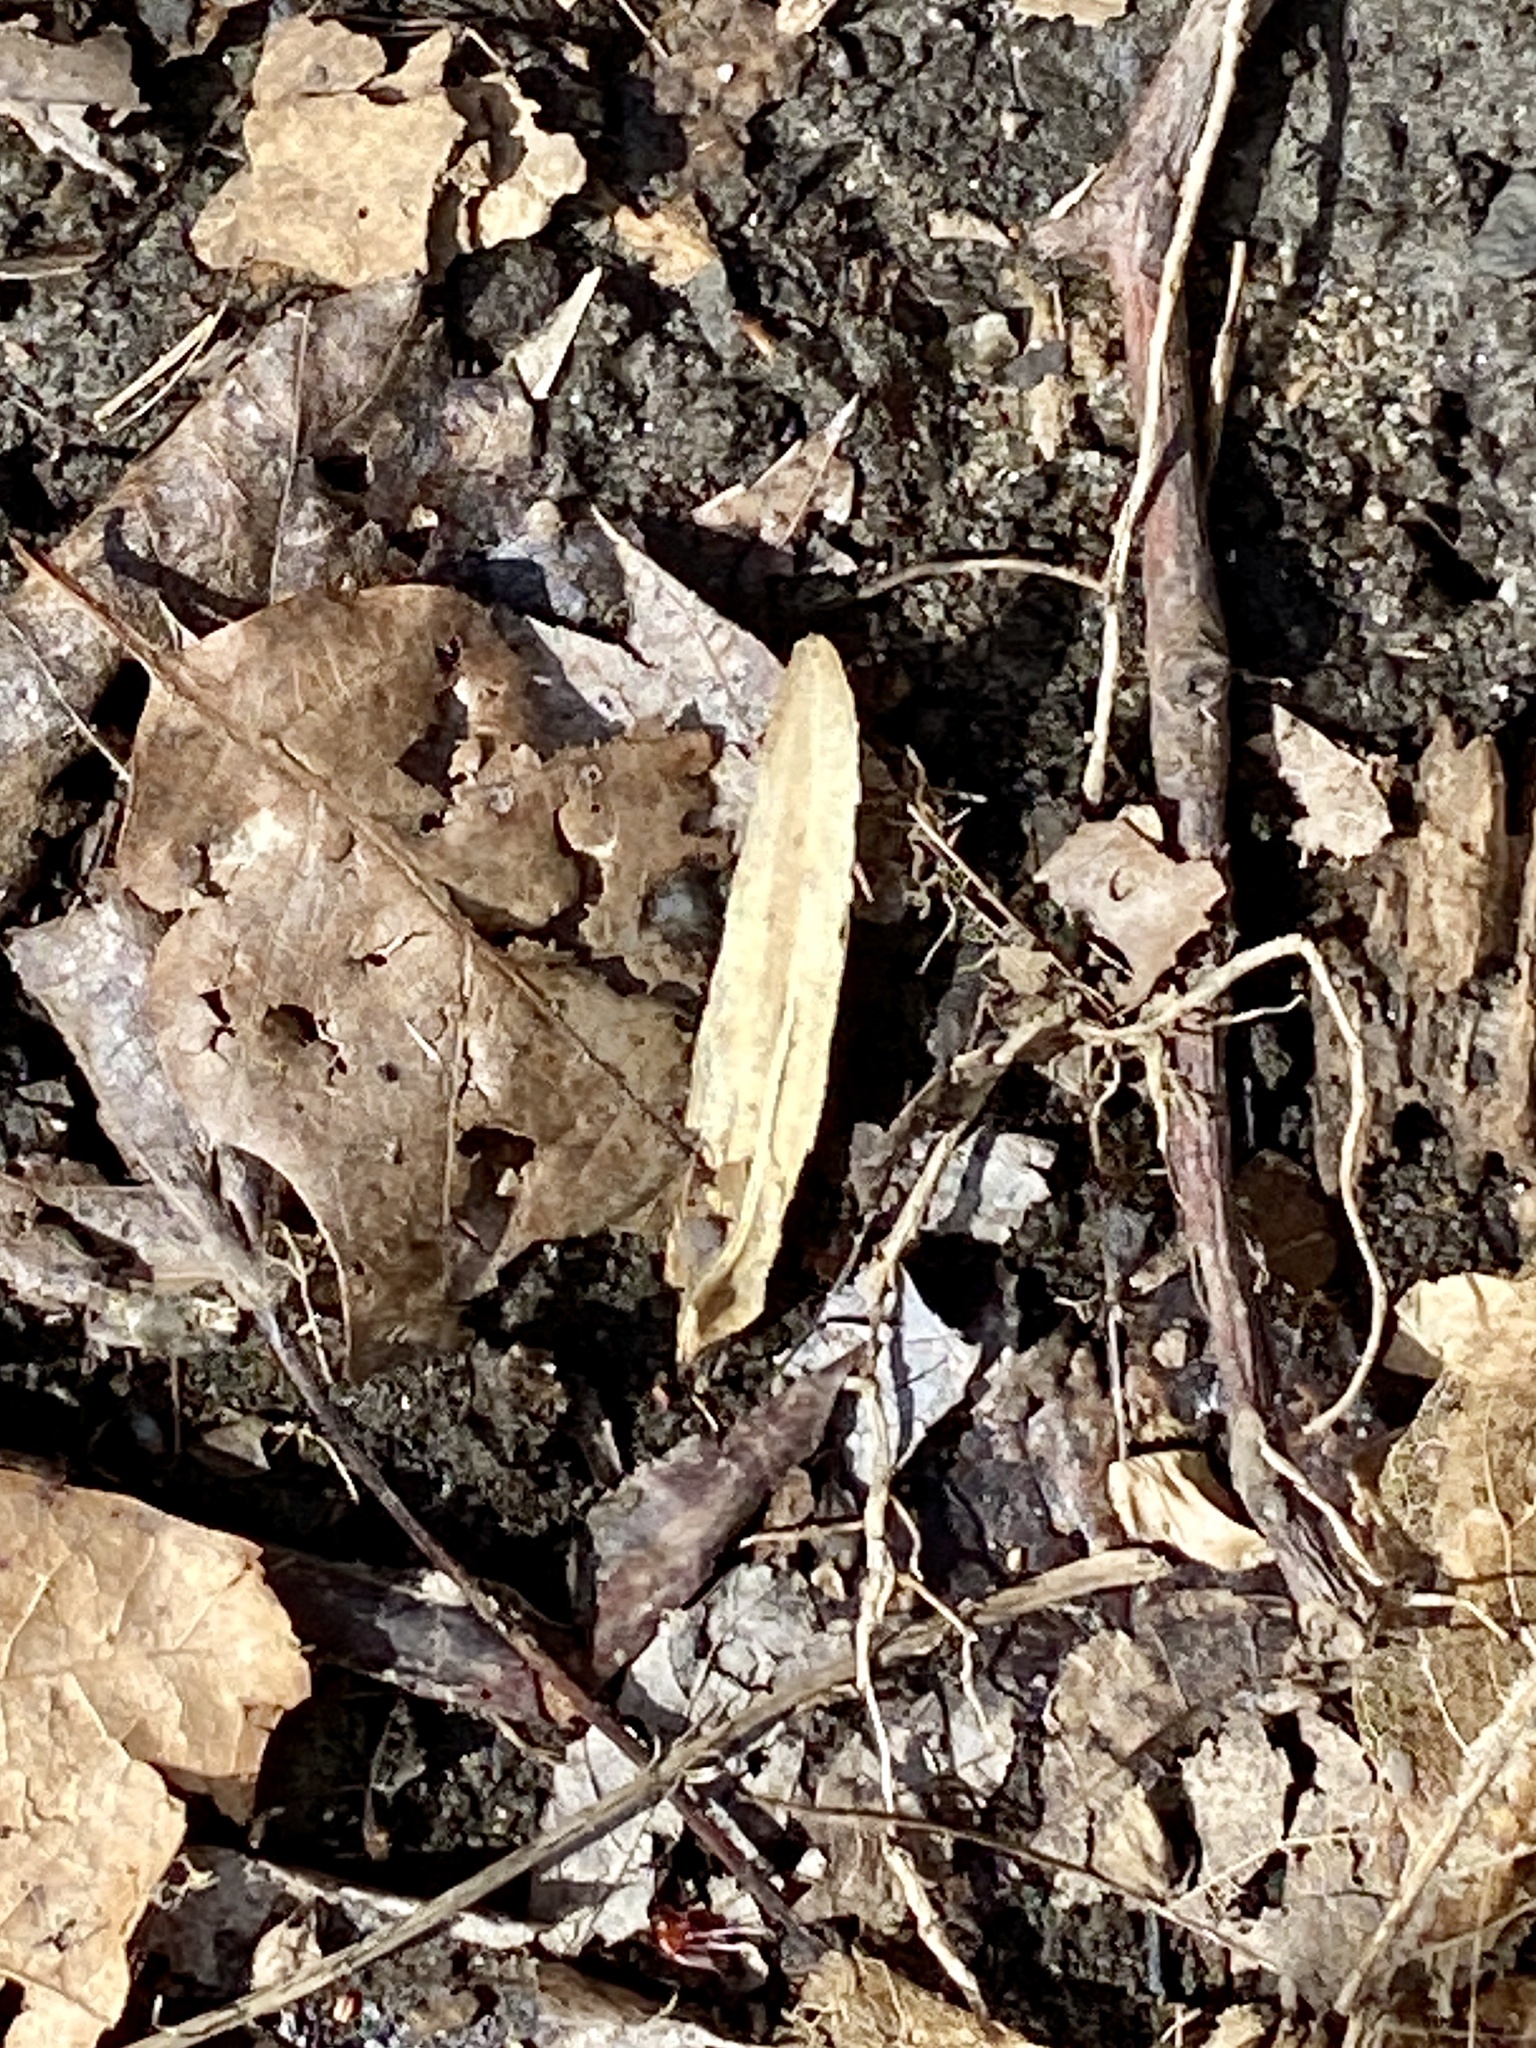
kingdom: Plantae
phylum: Tracheophyta
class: Magnoliopsida
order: Magnoliales
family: Magnoliaceae
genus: Liriodendron
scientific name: Liriodendron tulipifera
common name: Tulip tree
